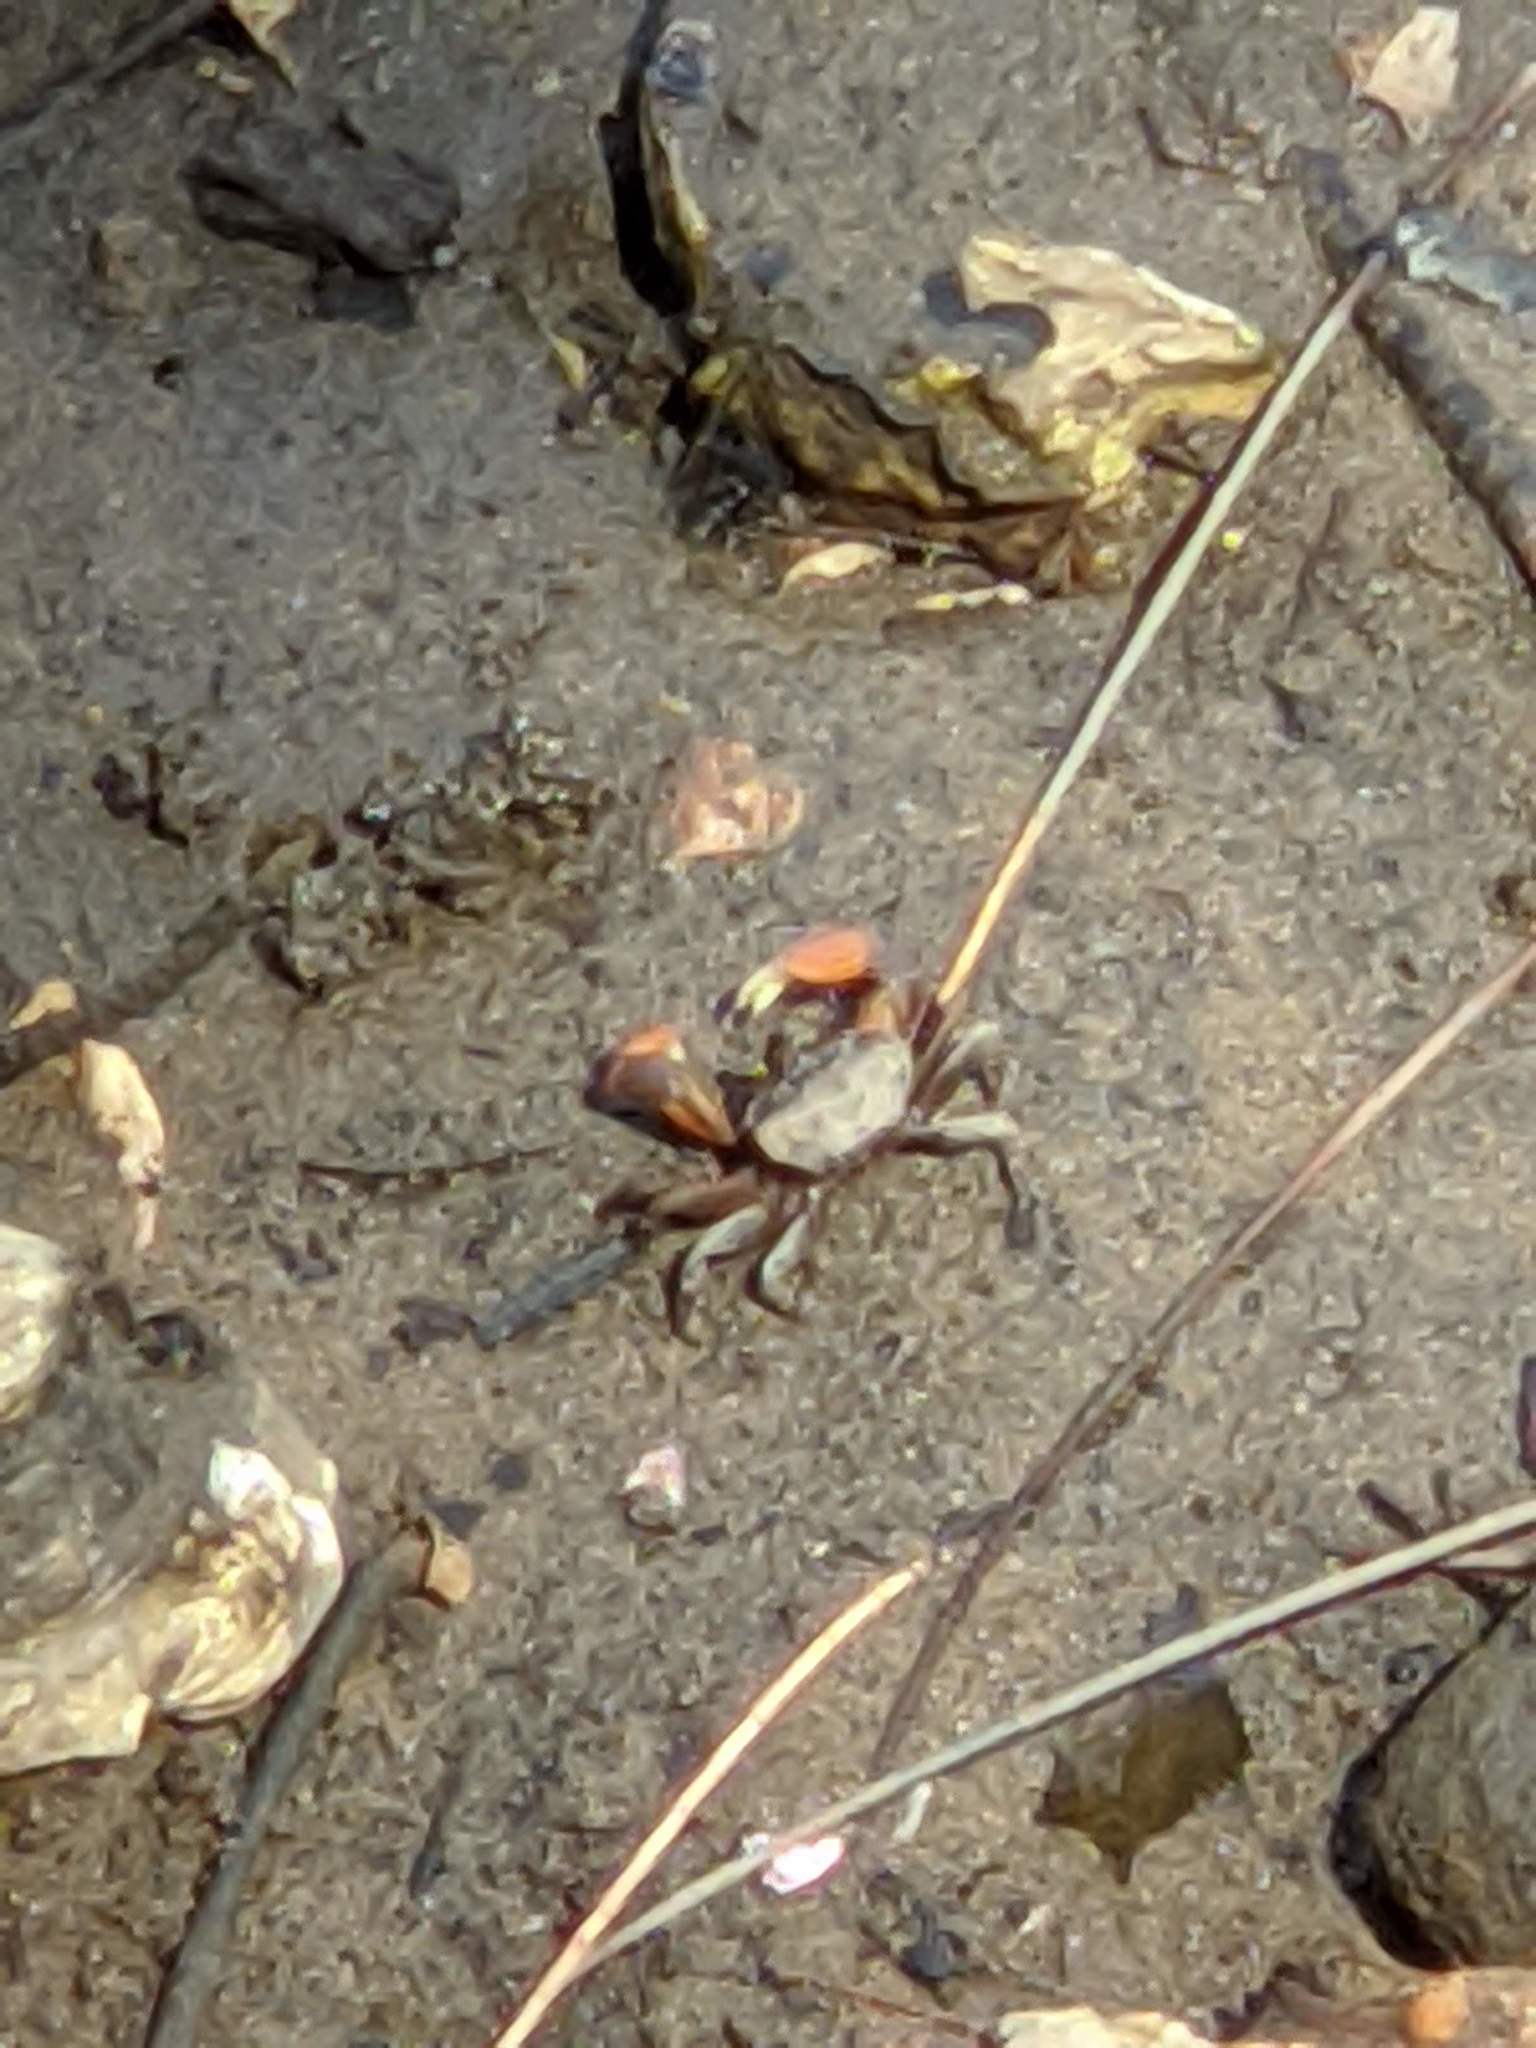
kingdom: Animalia
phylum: Arthropoda
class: Malacostraca
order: Decapoda
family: Heloeciidae
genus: Heloecius
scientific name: Heloecius cordiformis
